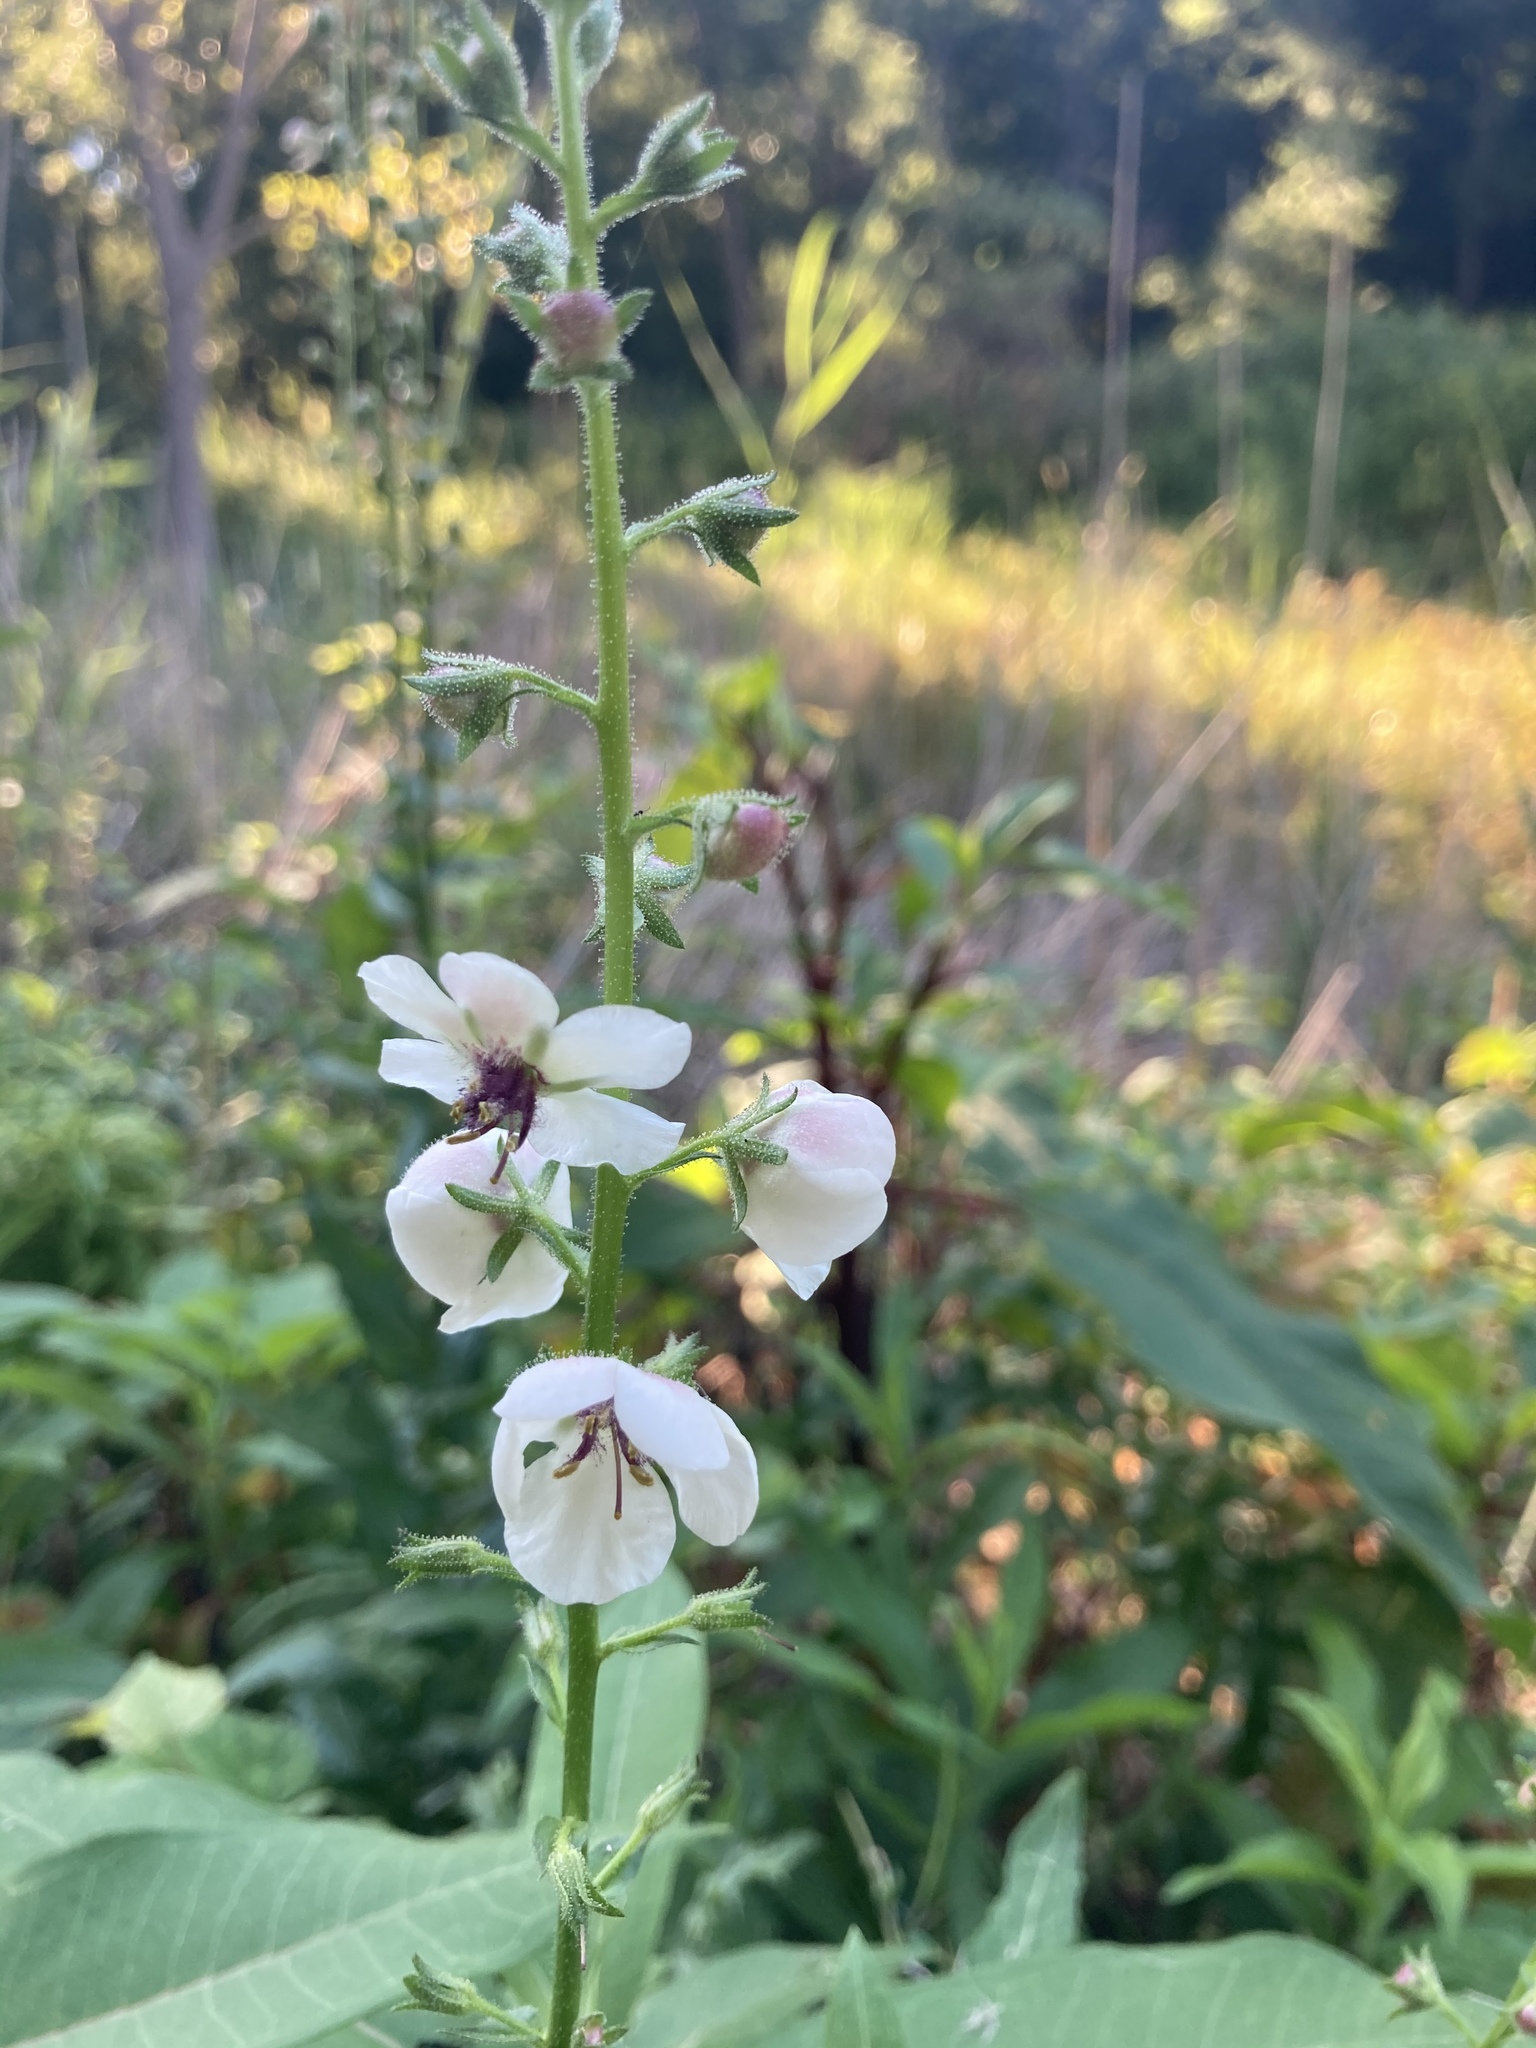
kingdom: Plantae
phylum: Tracheophyta
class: Magnoliopsida
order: Lamiales
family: Scrophulariaceae
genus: Verbascum
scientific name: Verbascum blattaria
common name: Moth mullein
